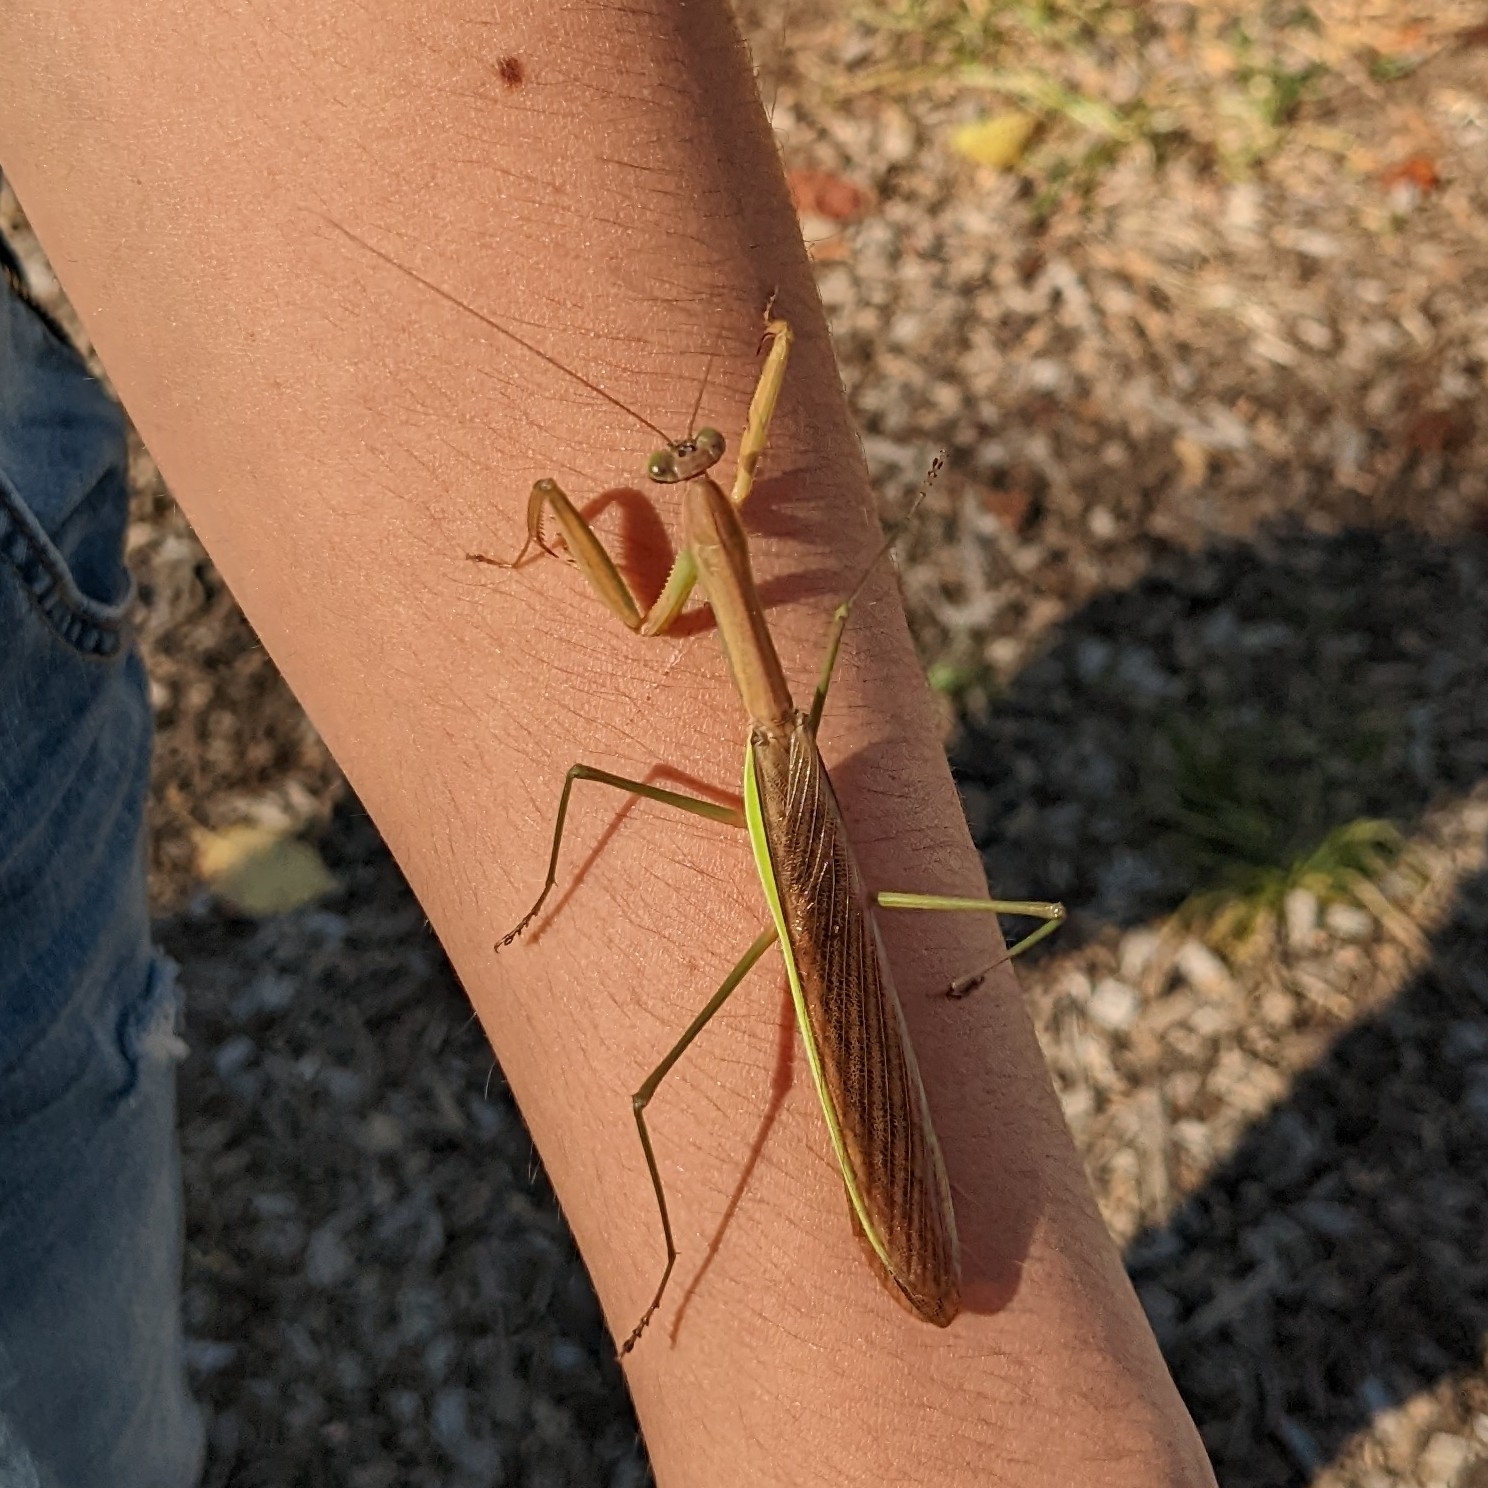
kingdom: Animalia
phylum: Arthropoda
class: Insecta
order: Mantodea
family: Mantidae
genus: Tenodera
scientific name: Tenodera sinensis
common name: Chinese mantis
